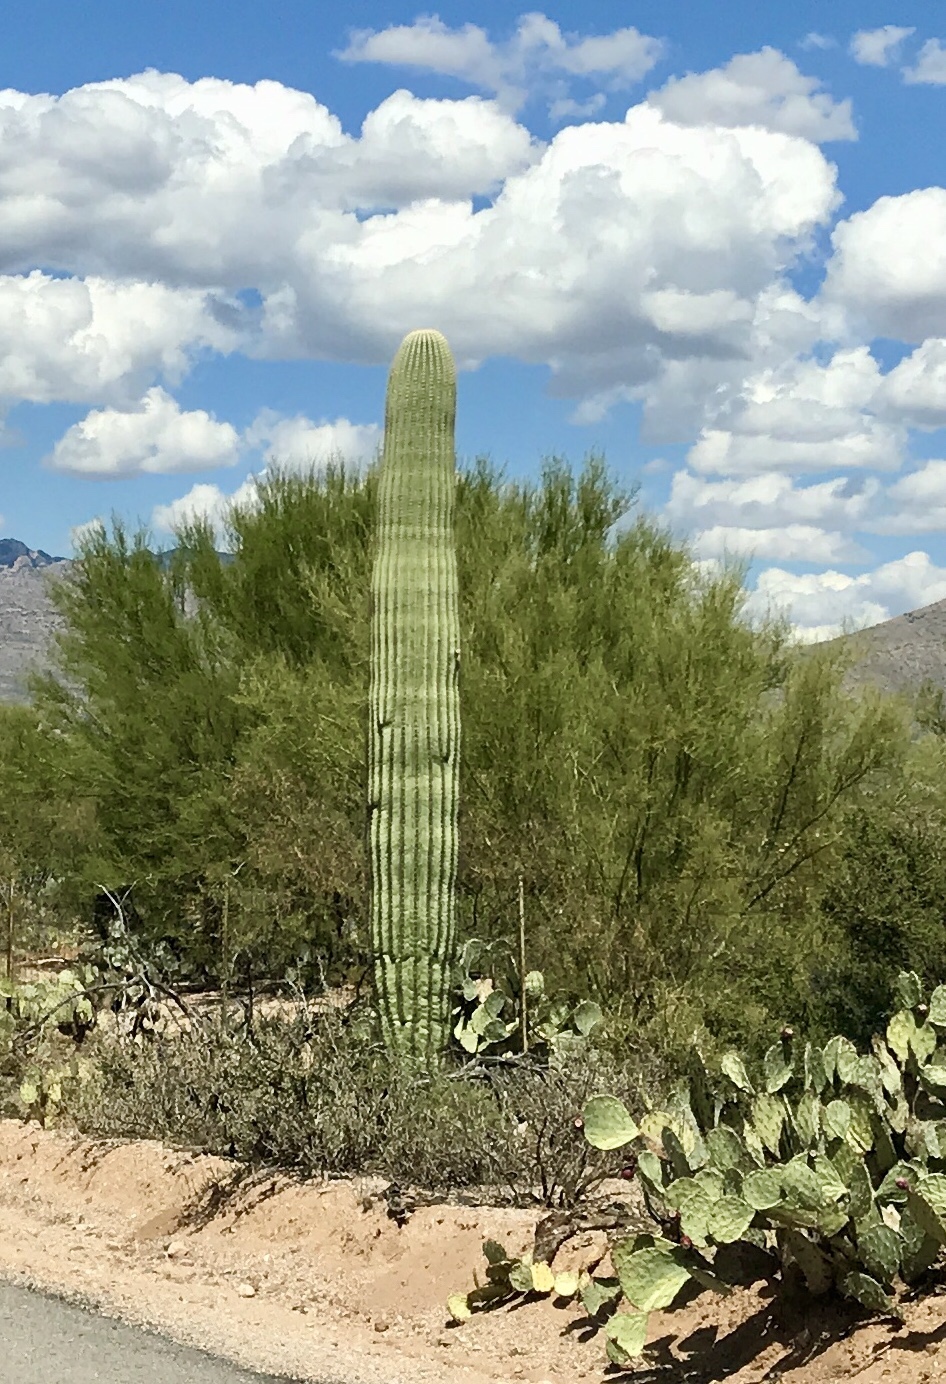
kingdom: Plantae
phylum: Tracheophyta
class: Magnoliopsida
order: Caryophyllales
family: Cactaceae
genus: Carnegiea
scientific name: Carnegiea gigantea
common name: Saguaro
